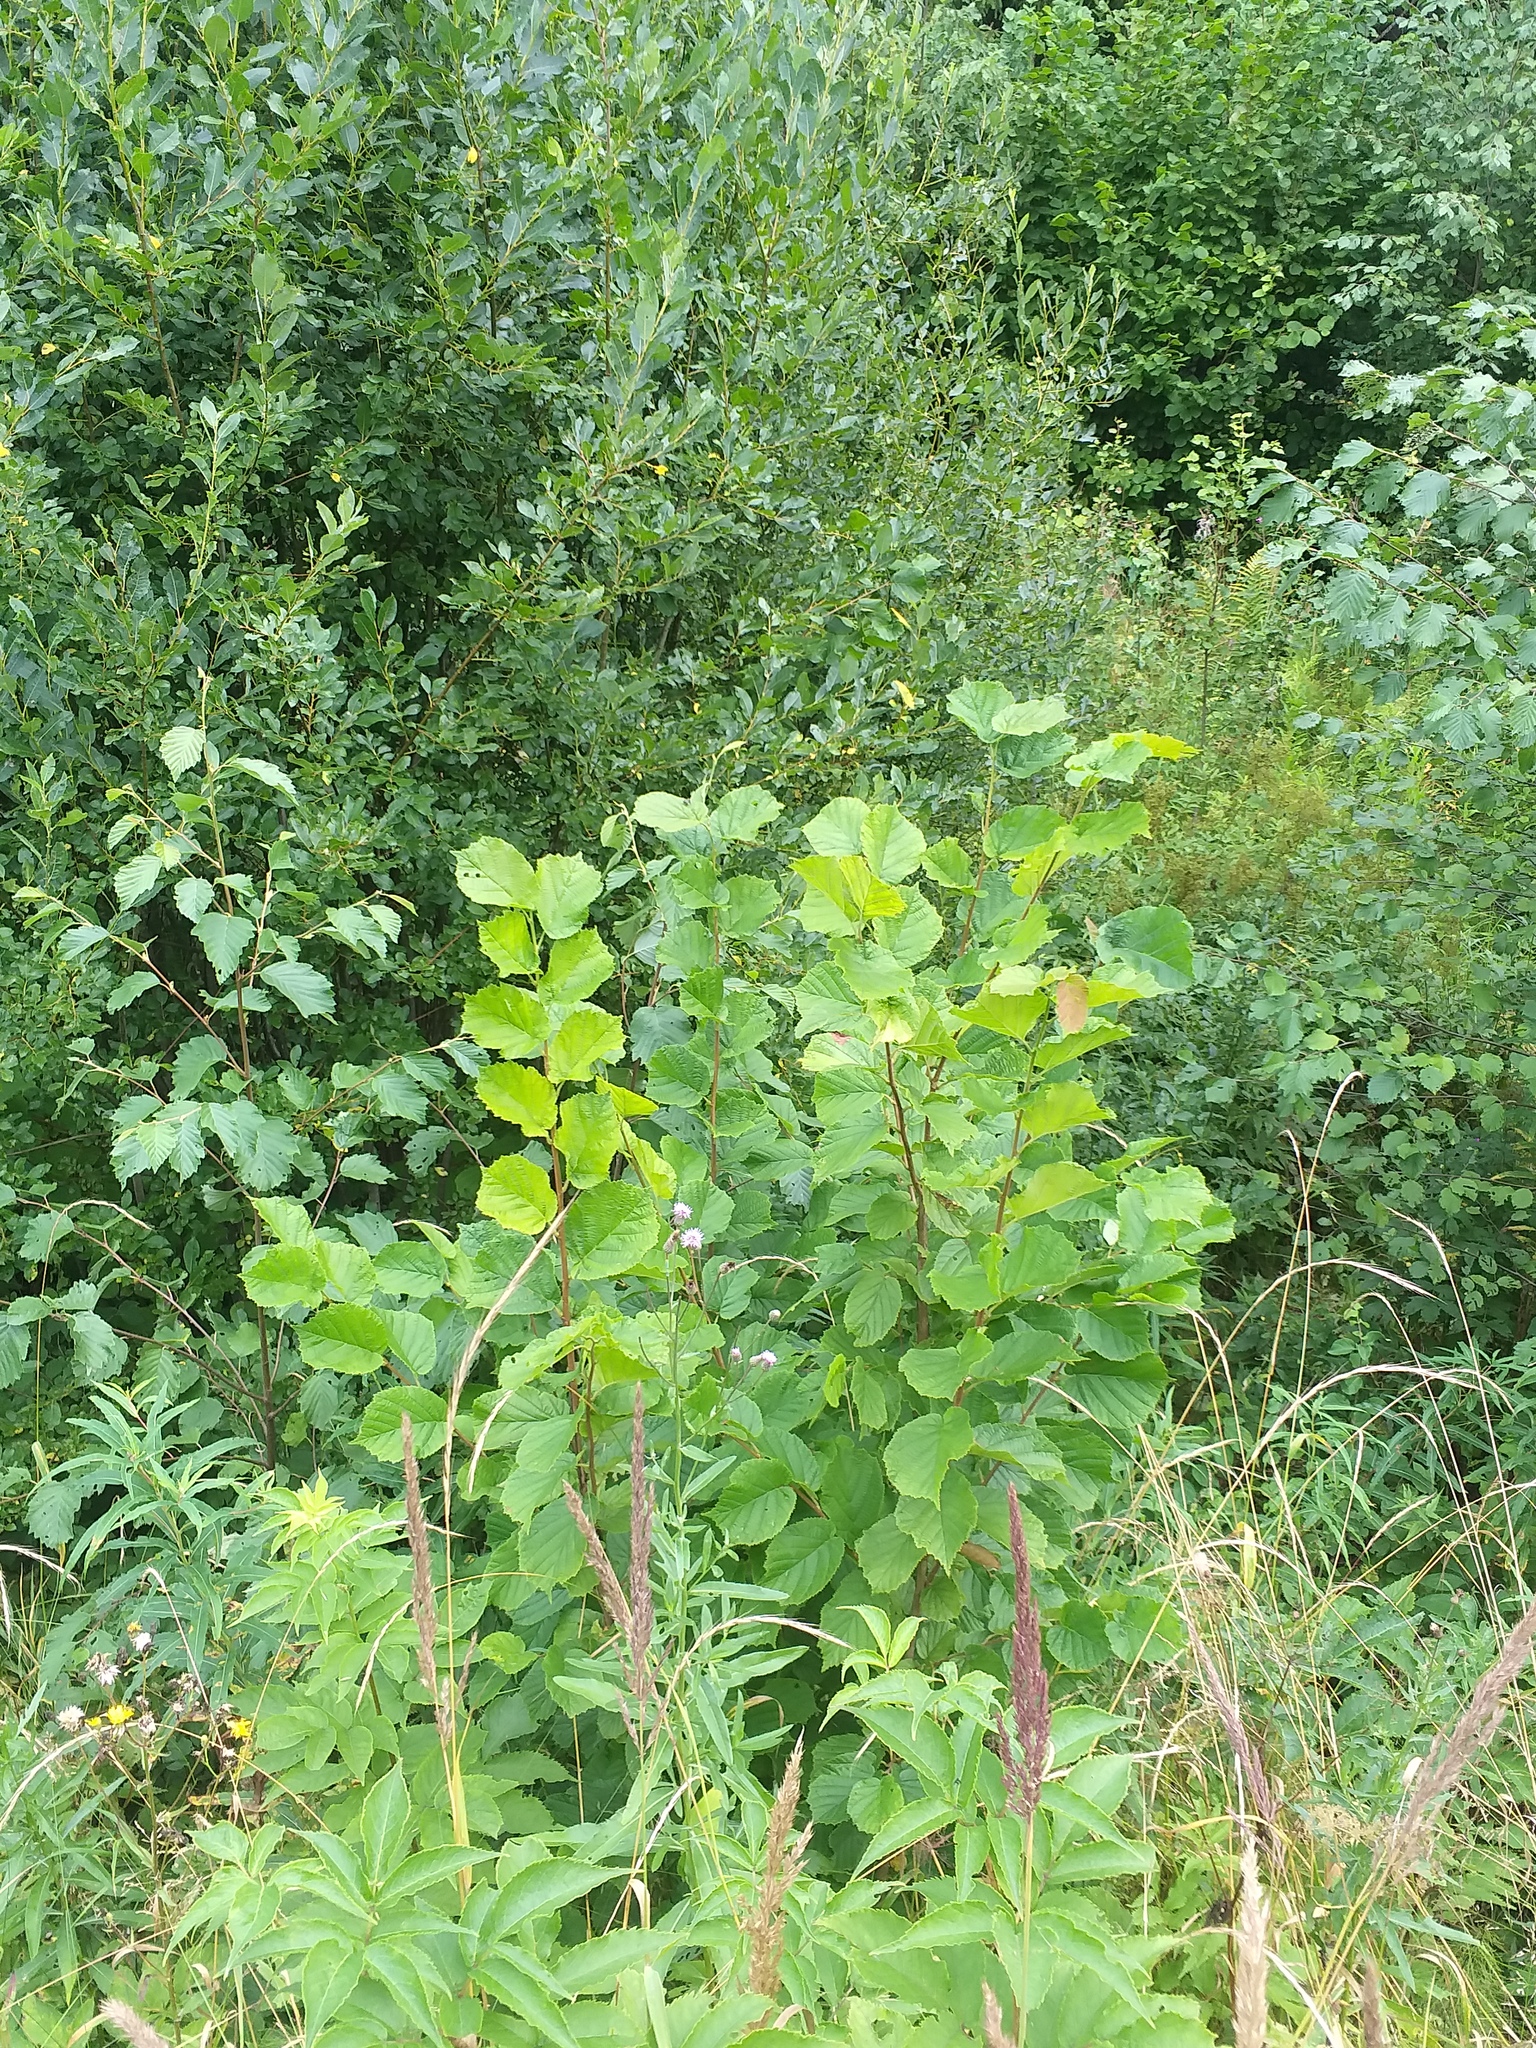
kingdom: Plantae
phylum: Tracheophyta
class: Magnoliopsida
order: Fagales
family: Betulaceae
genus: Corylus
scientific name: Corylus avellana
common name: European hazel
